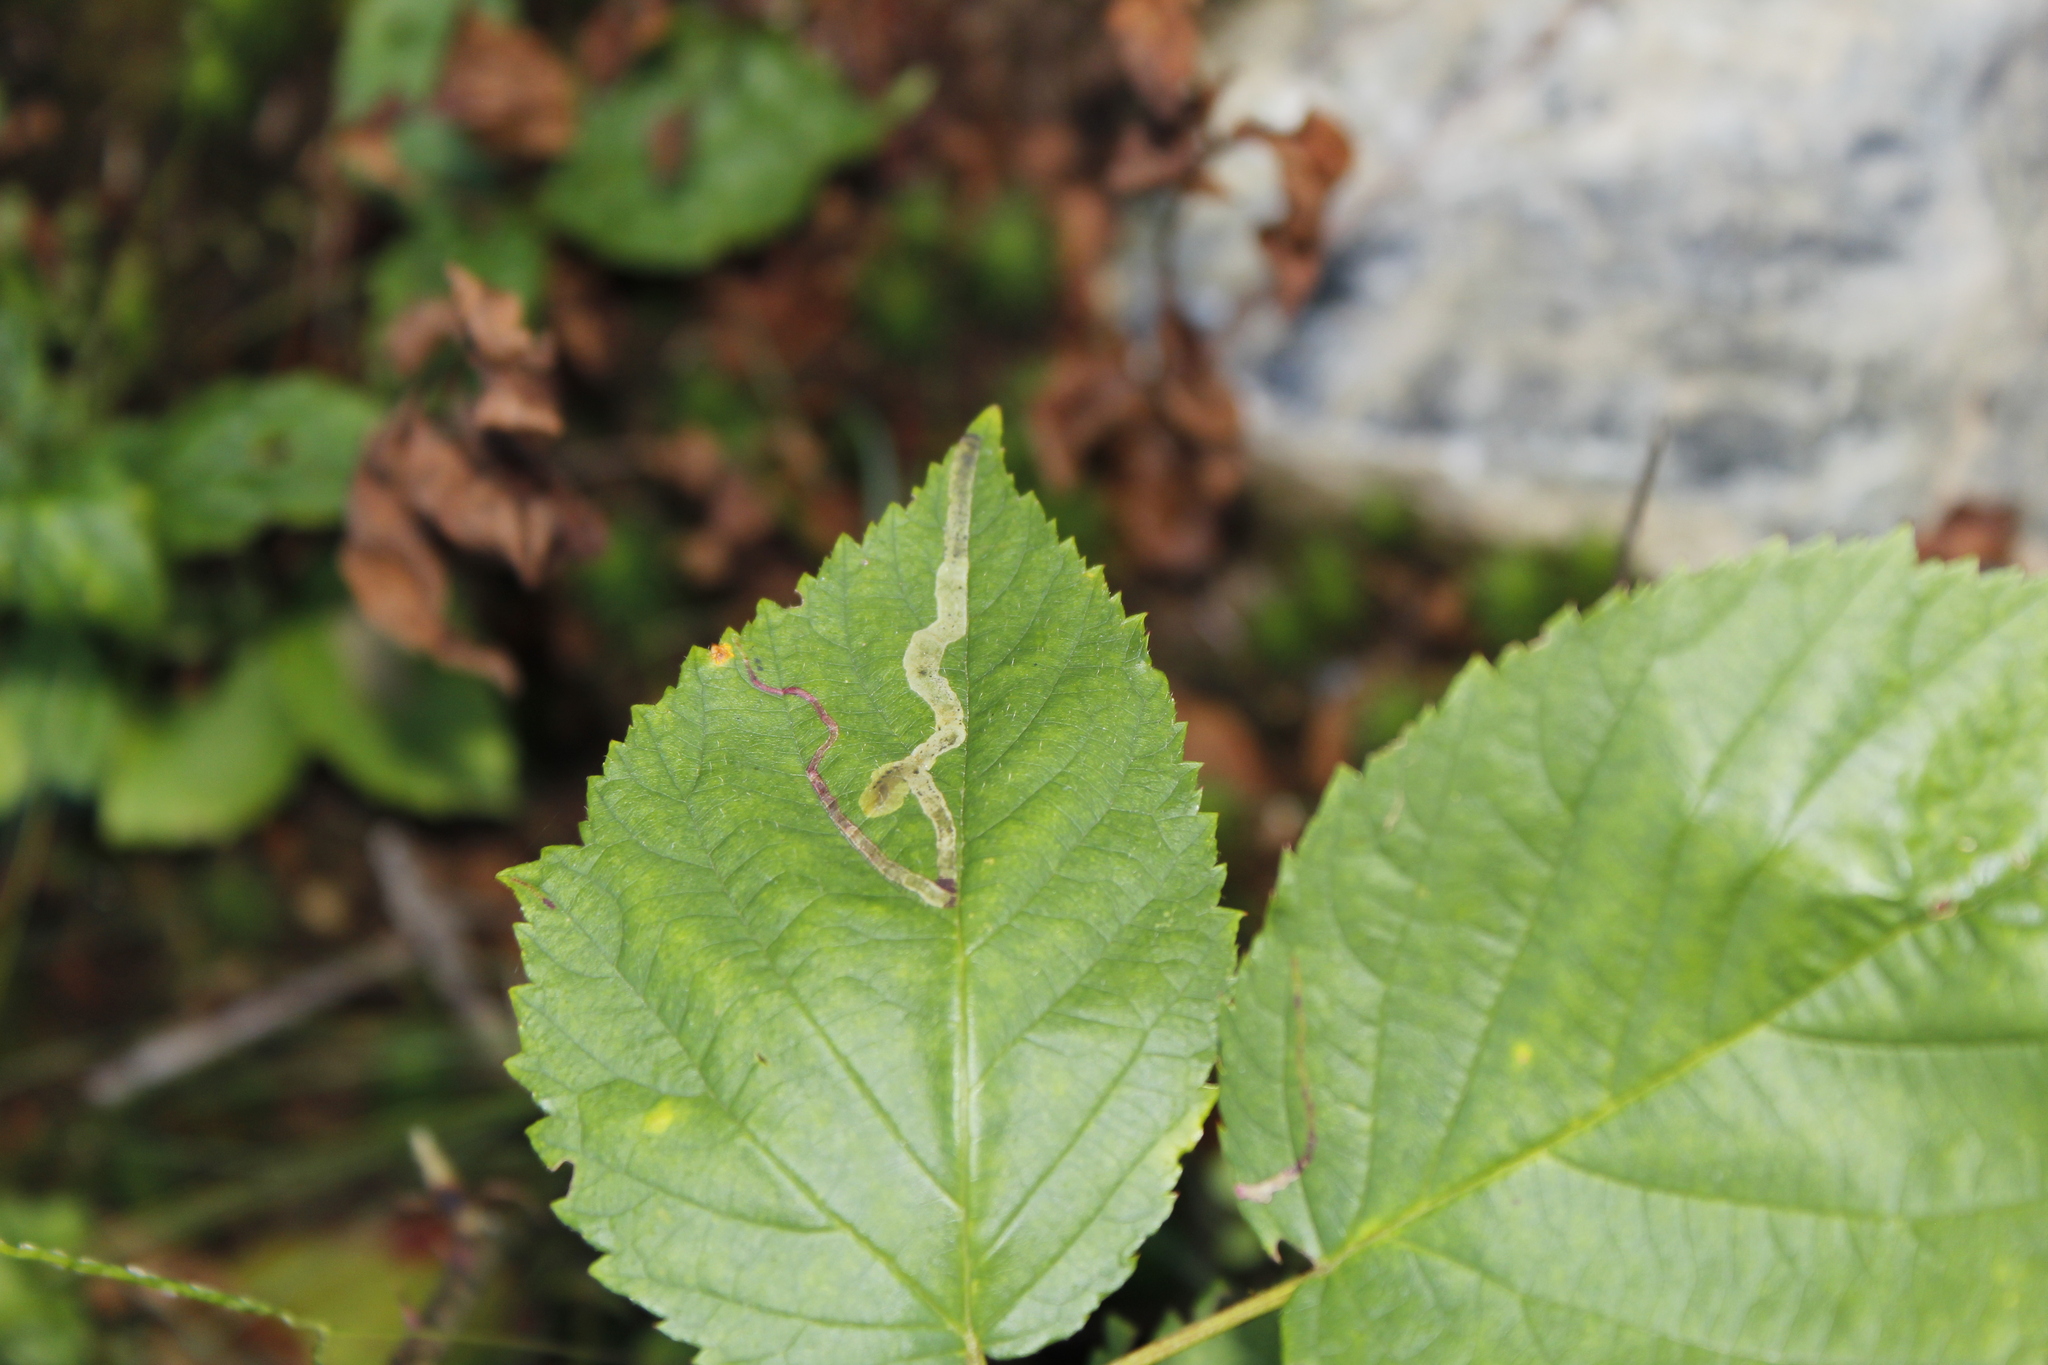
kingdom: Animalia
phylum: Arthropoda
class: Insecta
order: Diptera
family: Agromyzidae
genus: Agromyza
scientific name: Agromyza vockerothi
